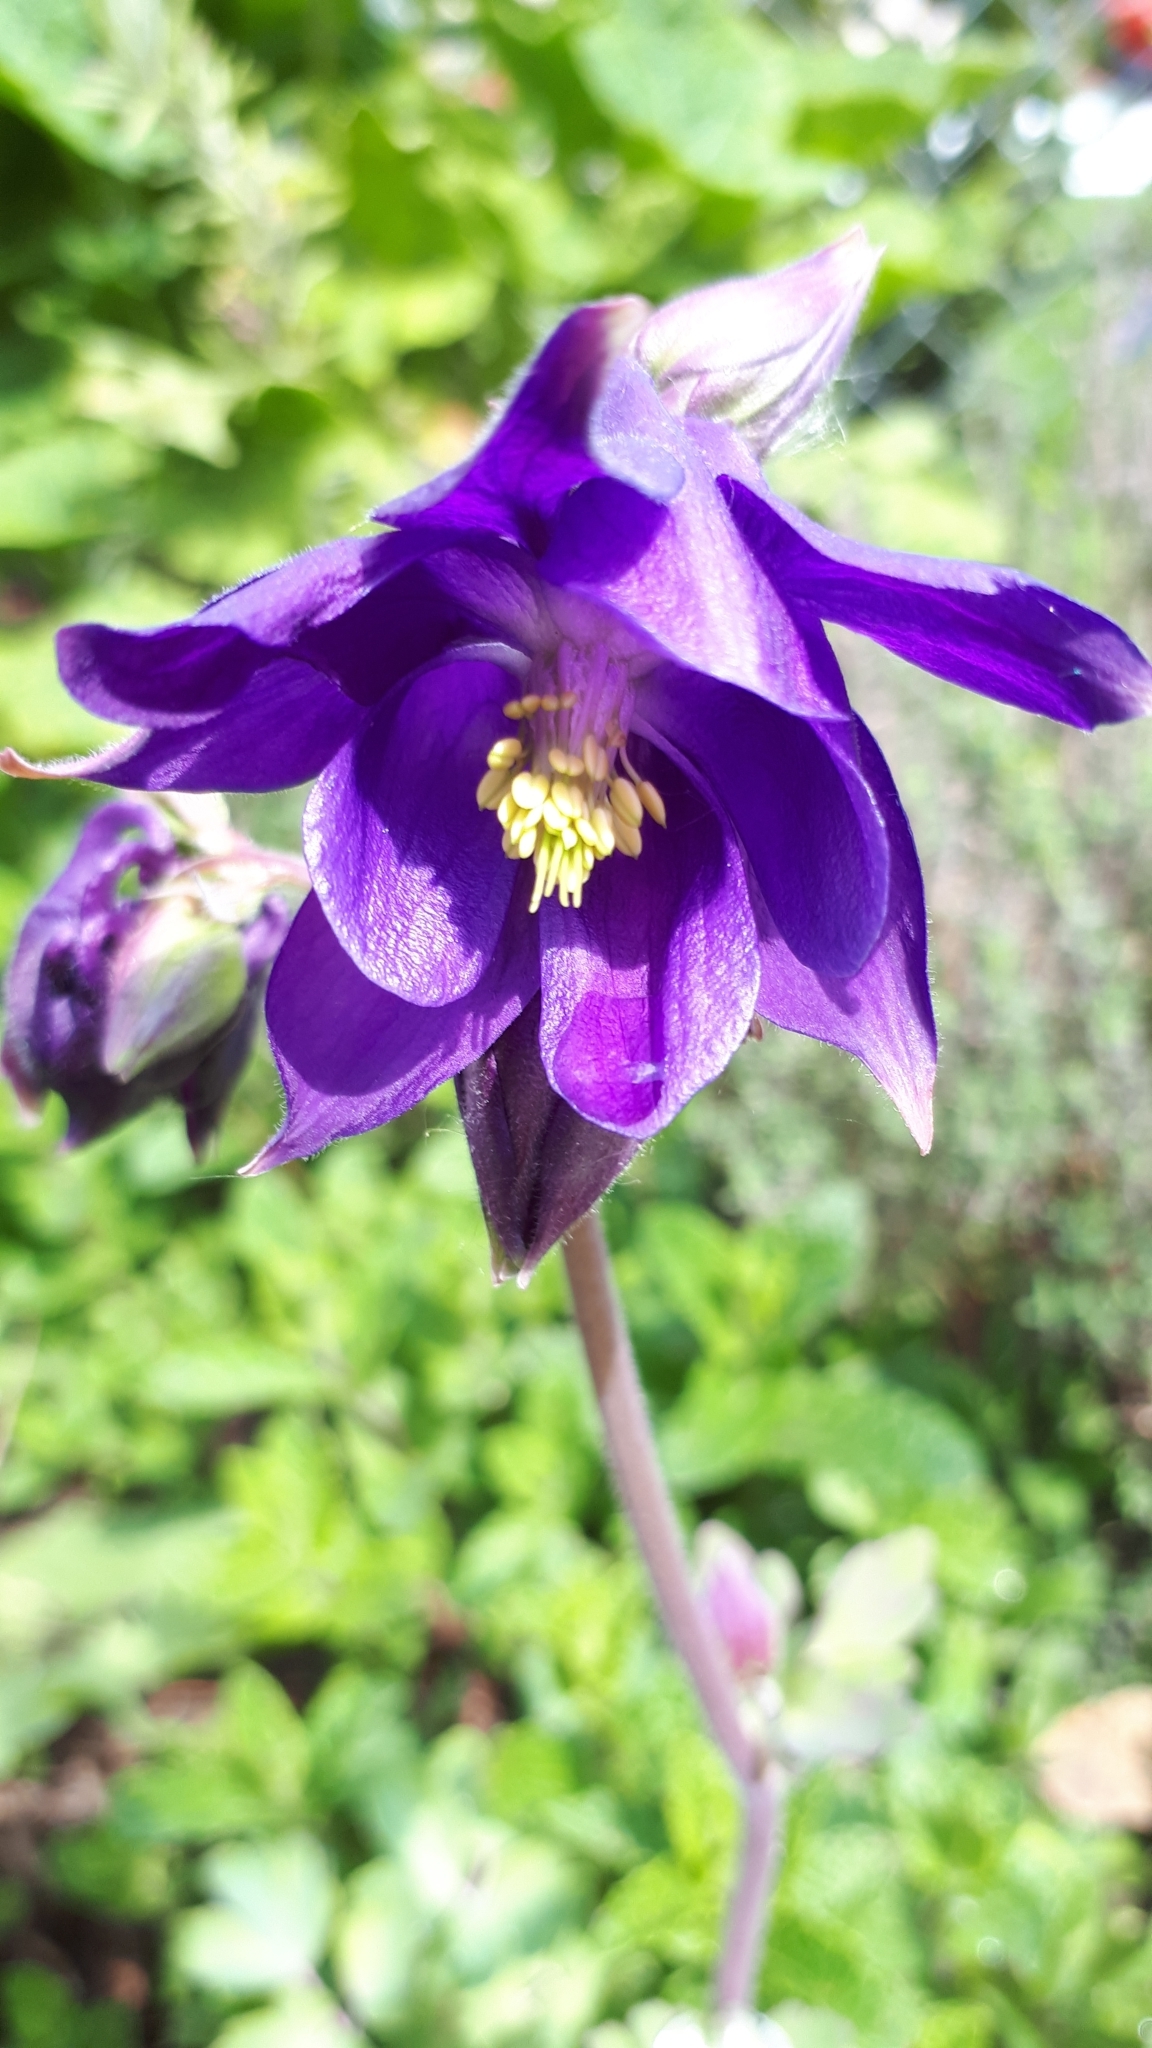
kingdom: Plantae
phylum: Tracheophyta
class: Magnoliopsida
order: Ranunculales
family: Ranunculaceae
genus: Aquilegia
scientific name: Aquilegia vulgaris
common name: Columbine
